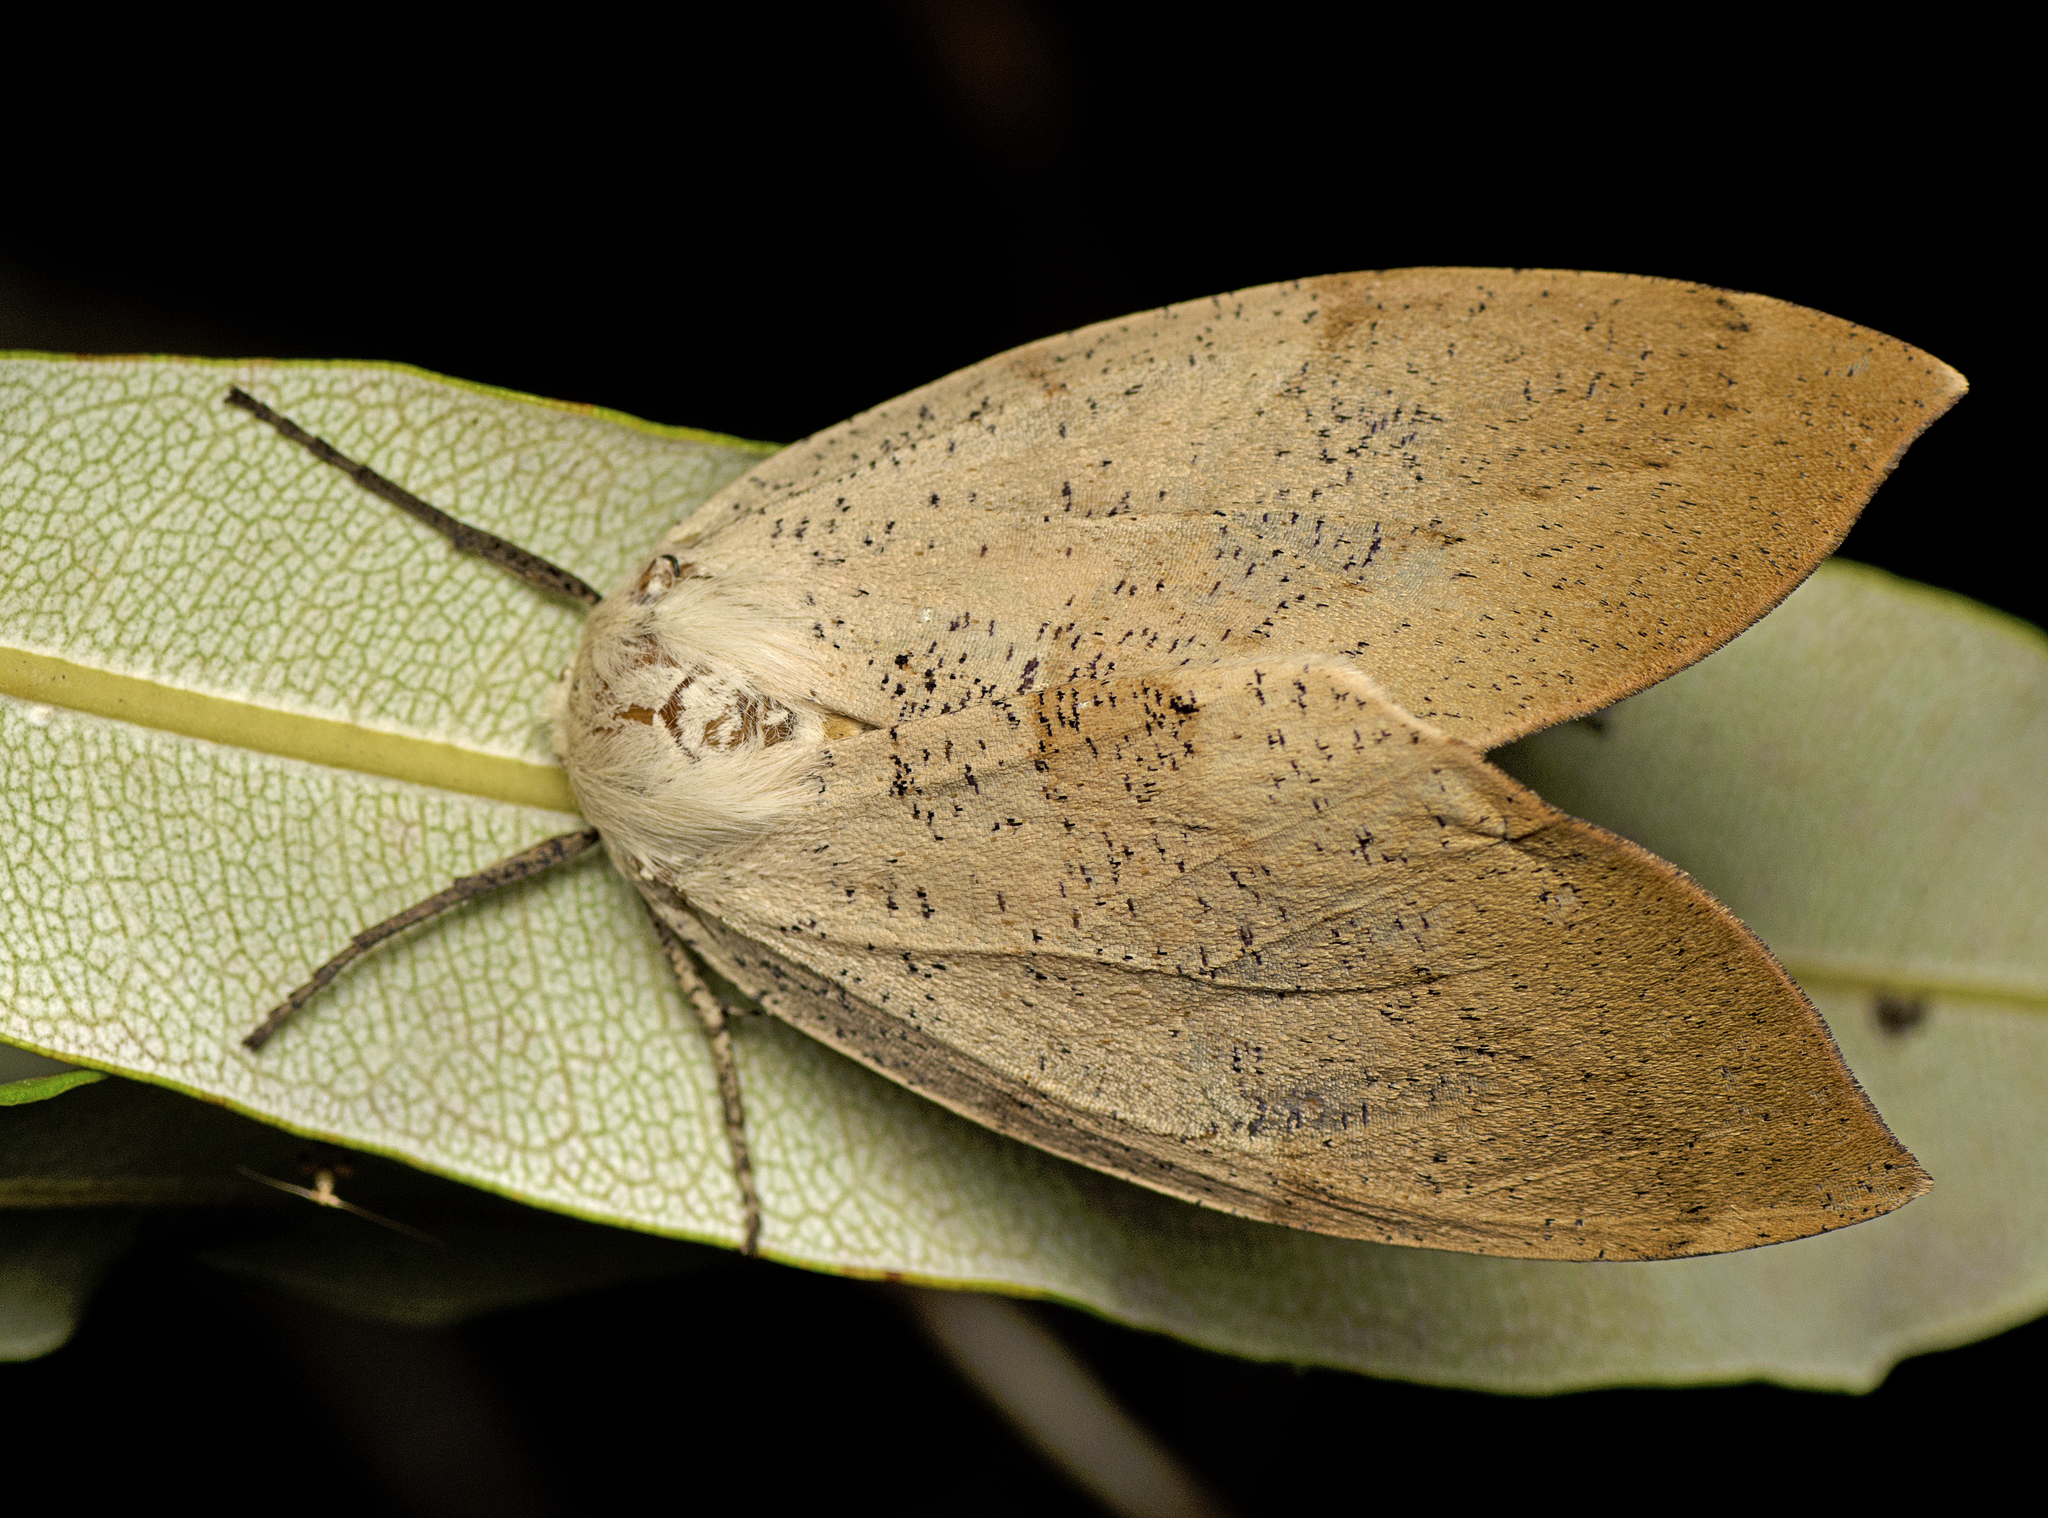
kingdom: Animalia
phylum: Arthropoda
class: Insecta
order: Lepidoptera
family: Geometridae
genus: Gastrophora
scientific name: Gastrophora henricaria
